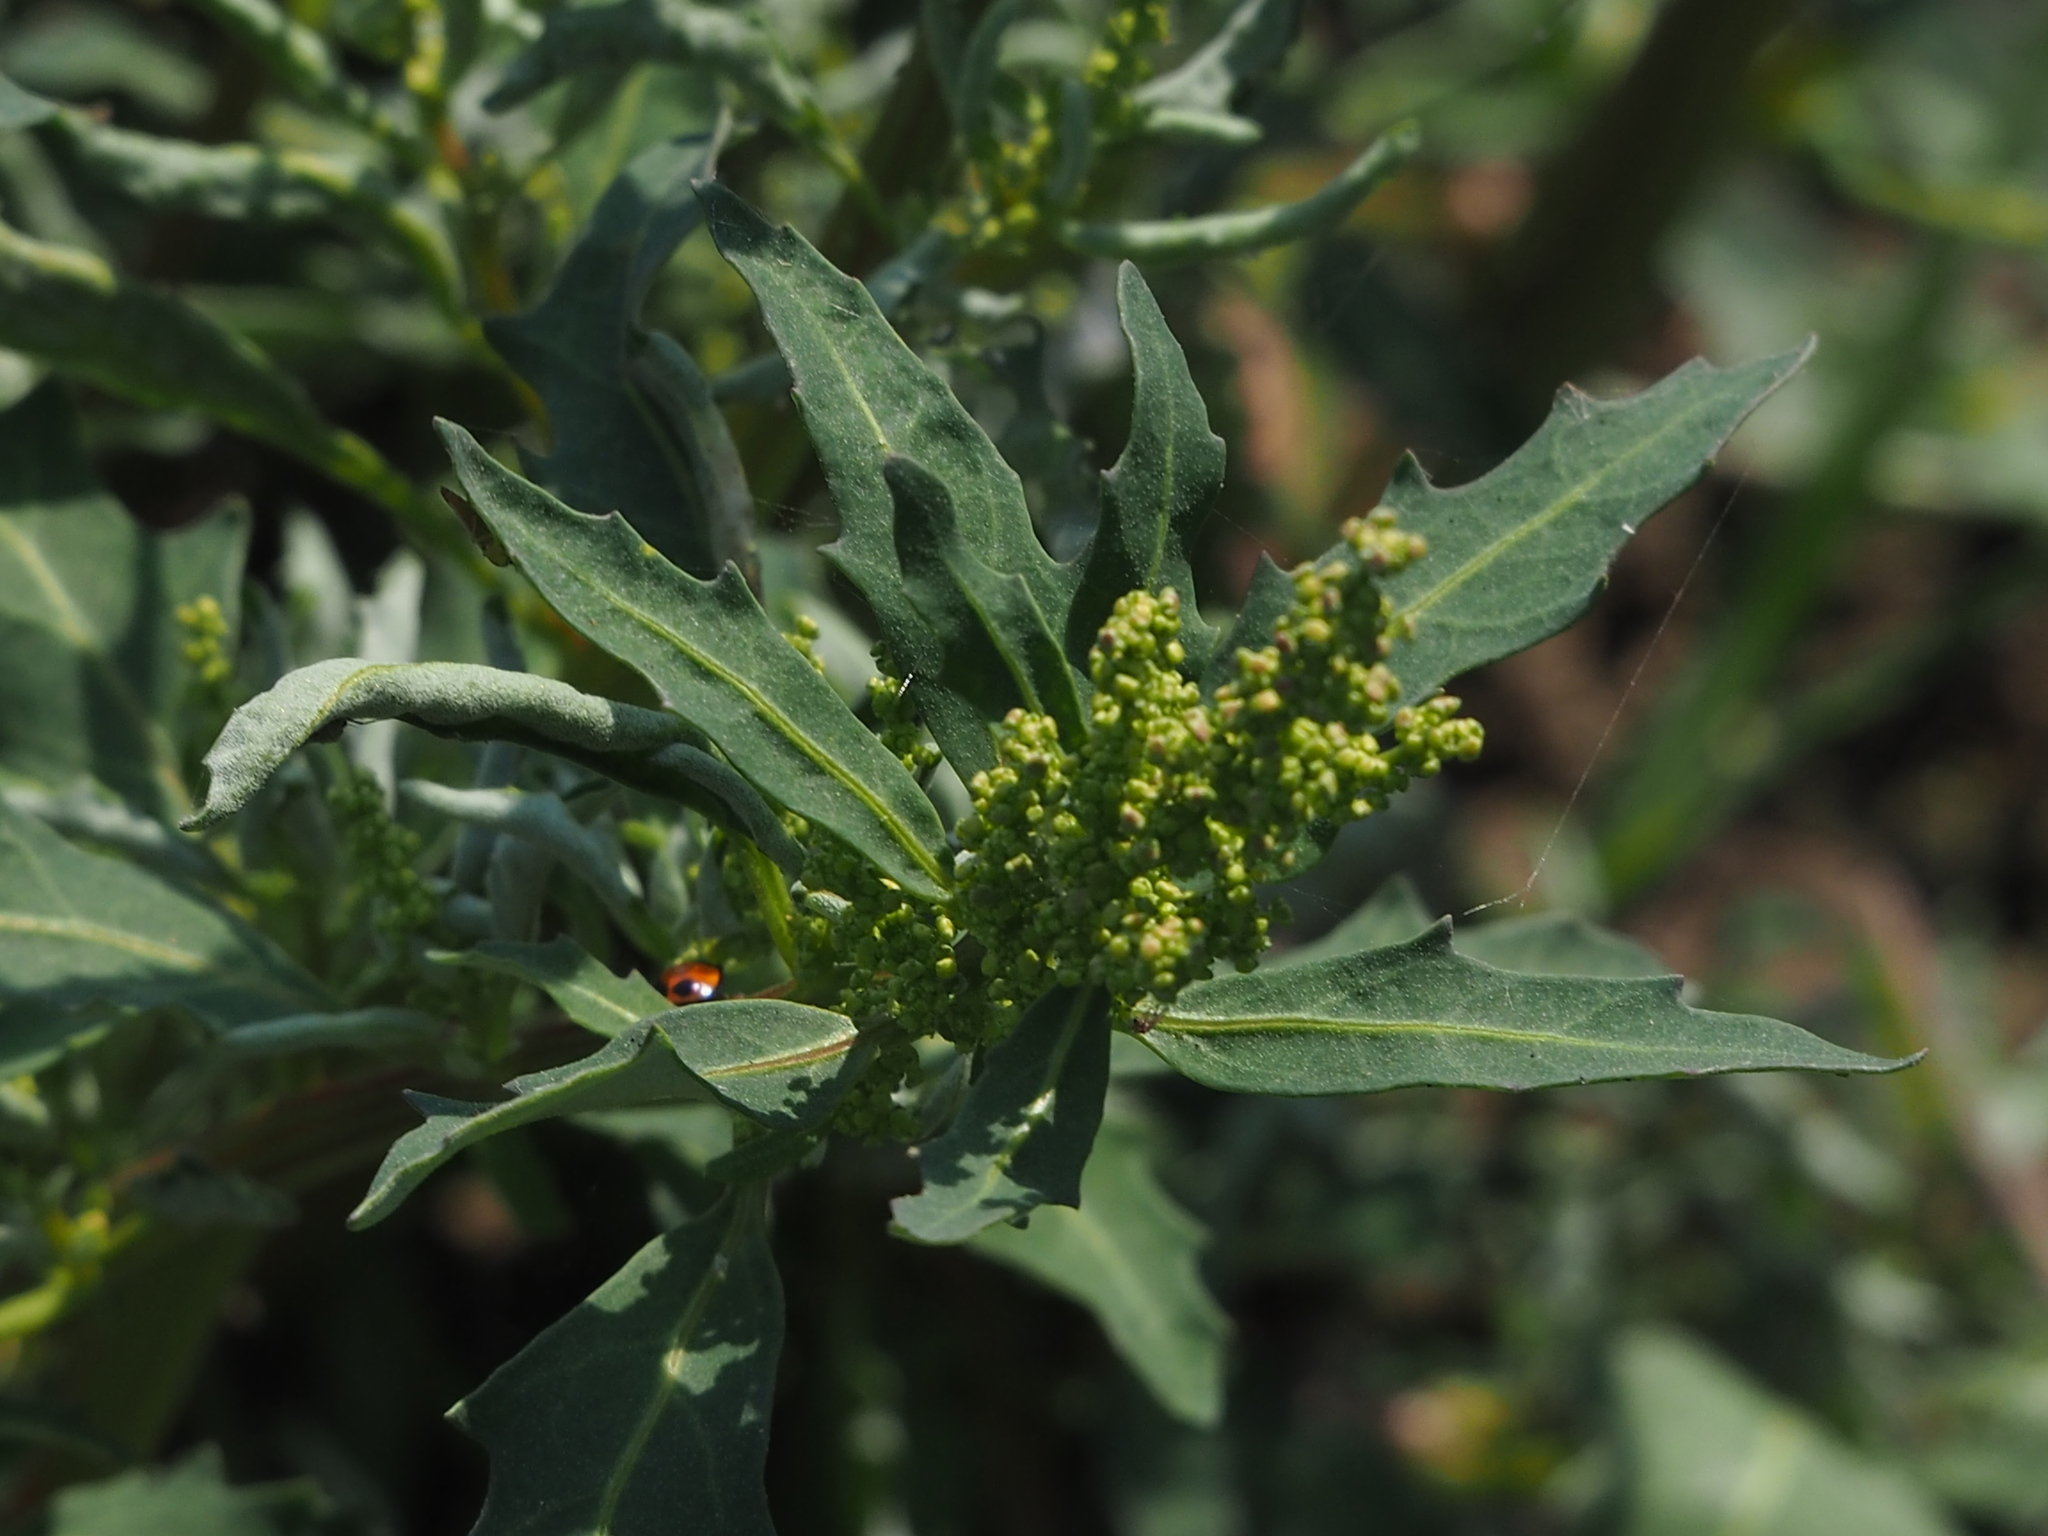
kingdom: Plantae
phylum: Tracheophyta
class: Magnoliopsida
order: Caryophyllales
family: Amaranthaceae
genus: Oxybasis
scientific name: Oxybasis glauca
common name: Glaucous goosefoot
